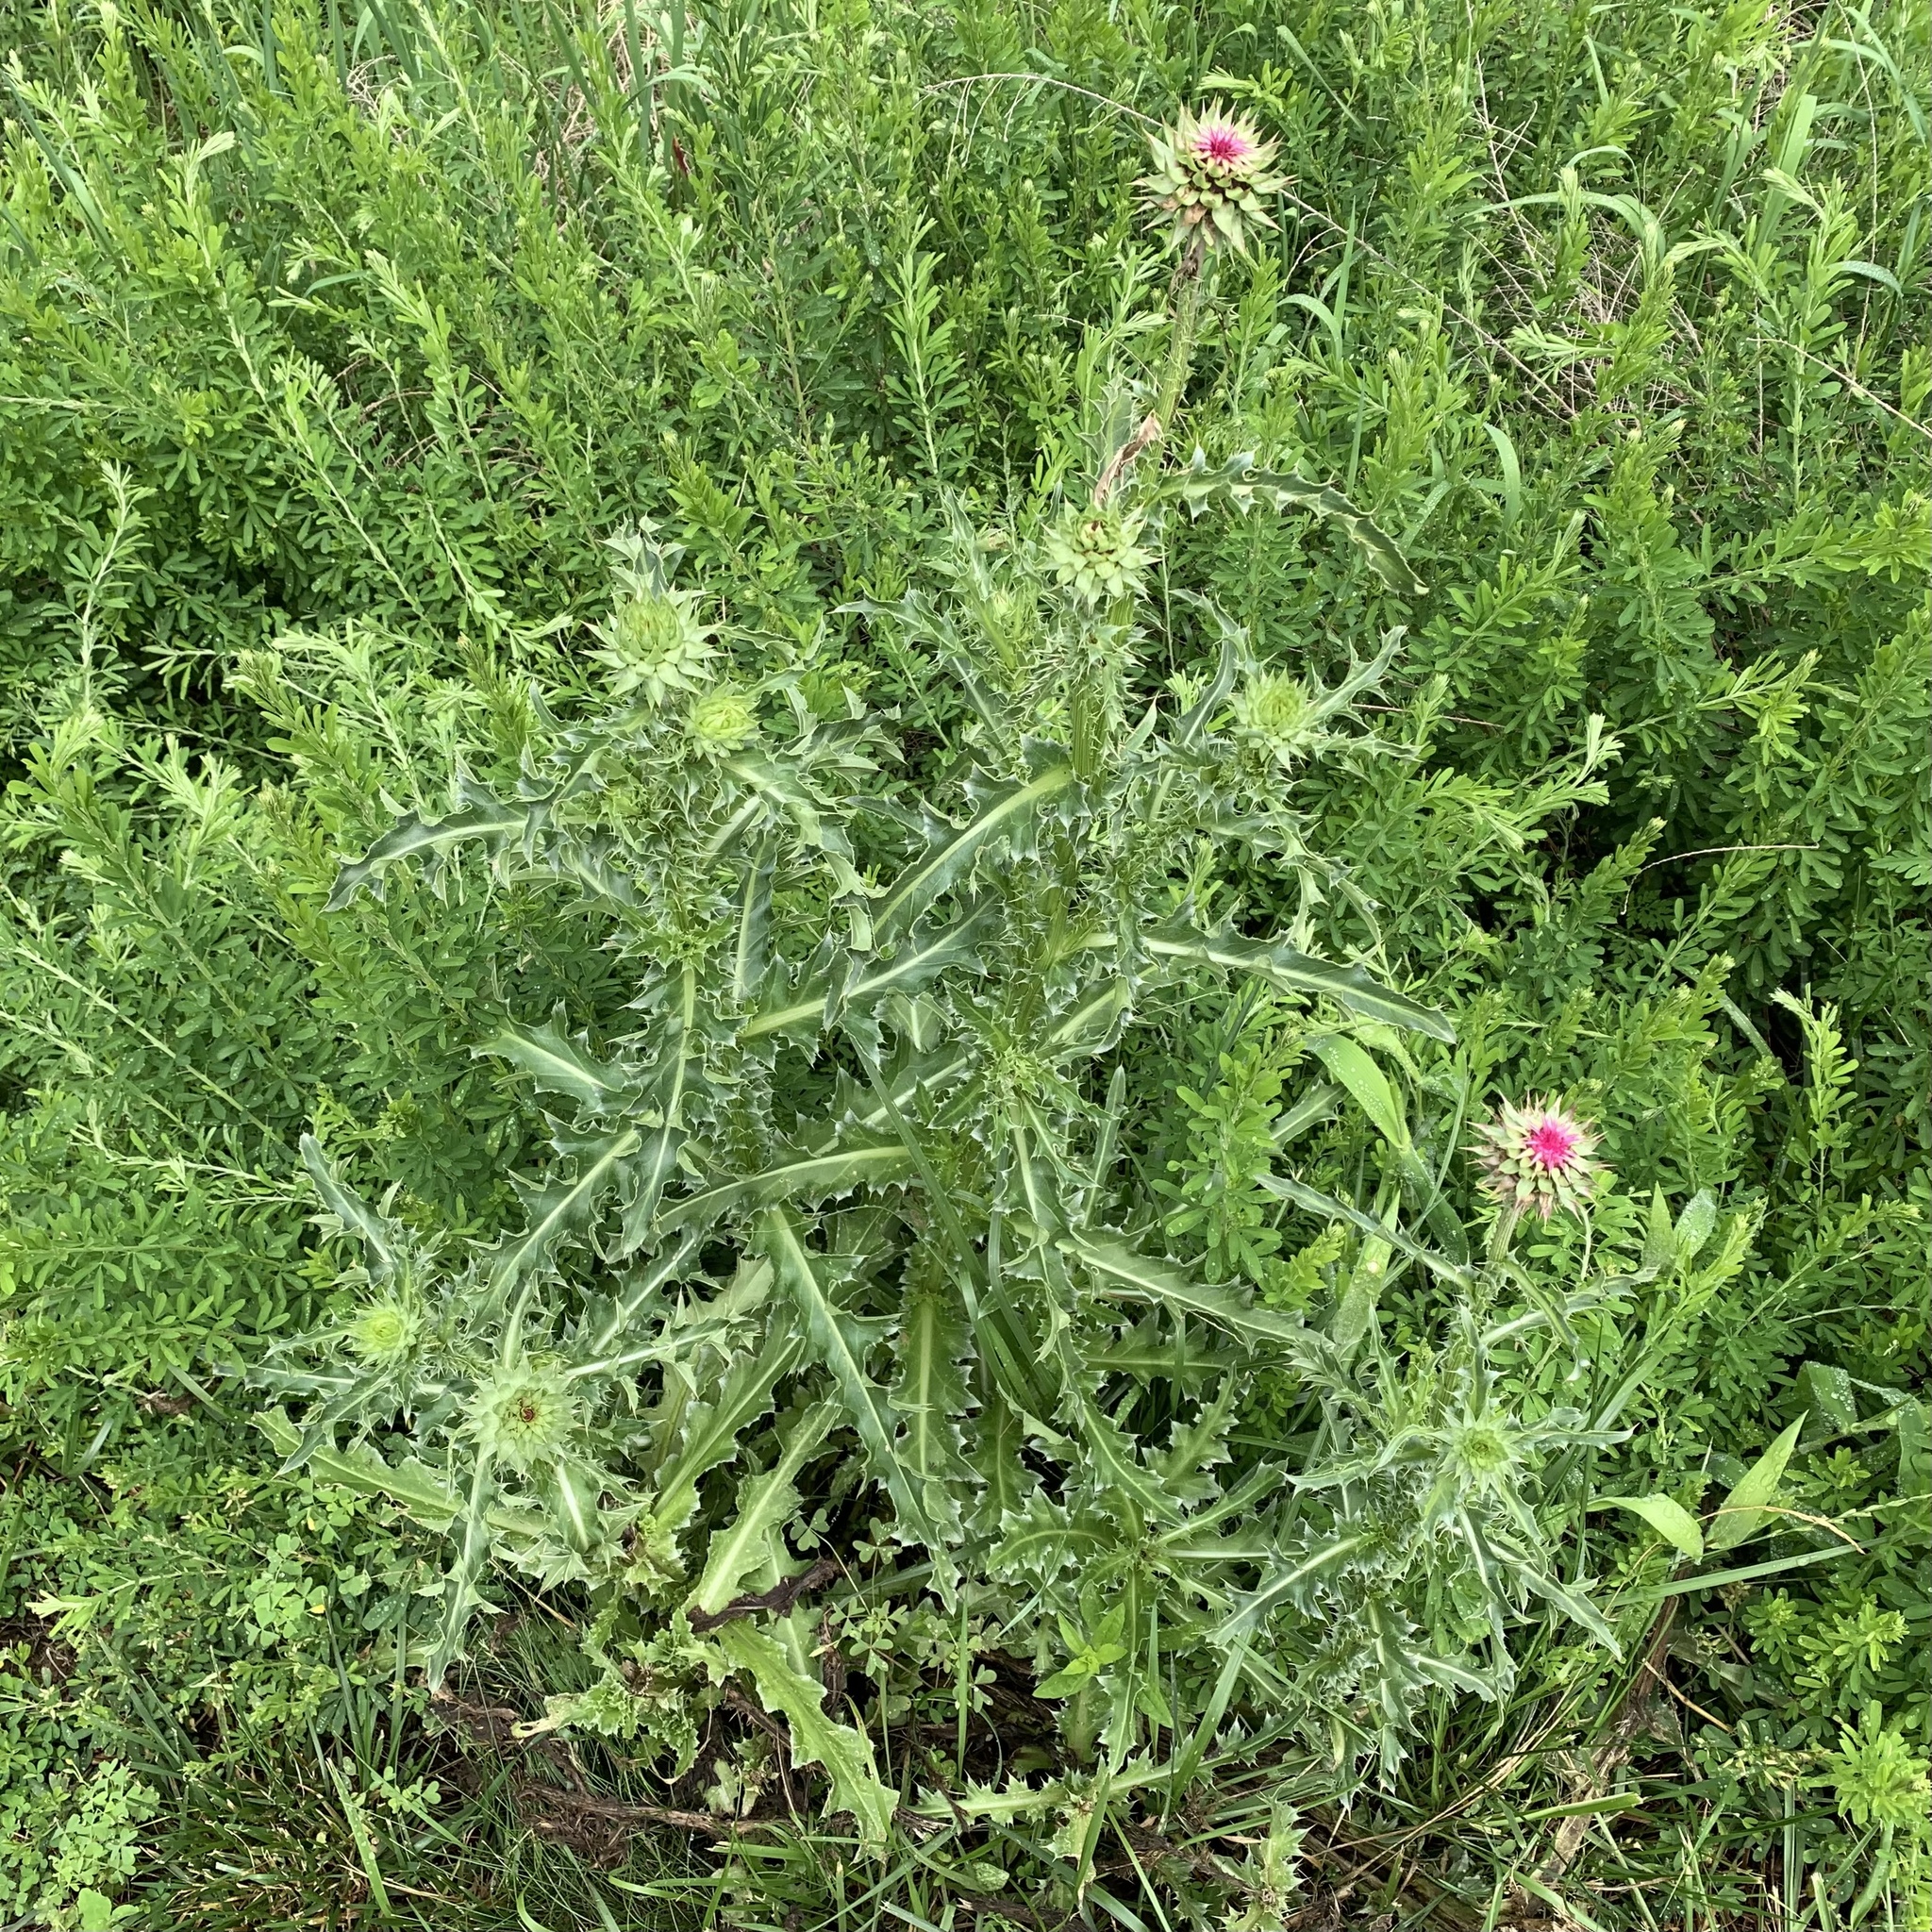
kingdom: Plantae
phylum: Tracheophyta
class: Magnoliopsida
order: Asterales
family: Asteraceae
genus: Carduus
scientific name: Carduus nutans
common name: Musk thistle
